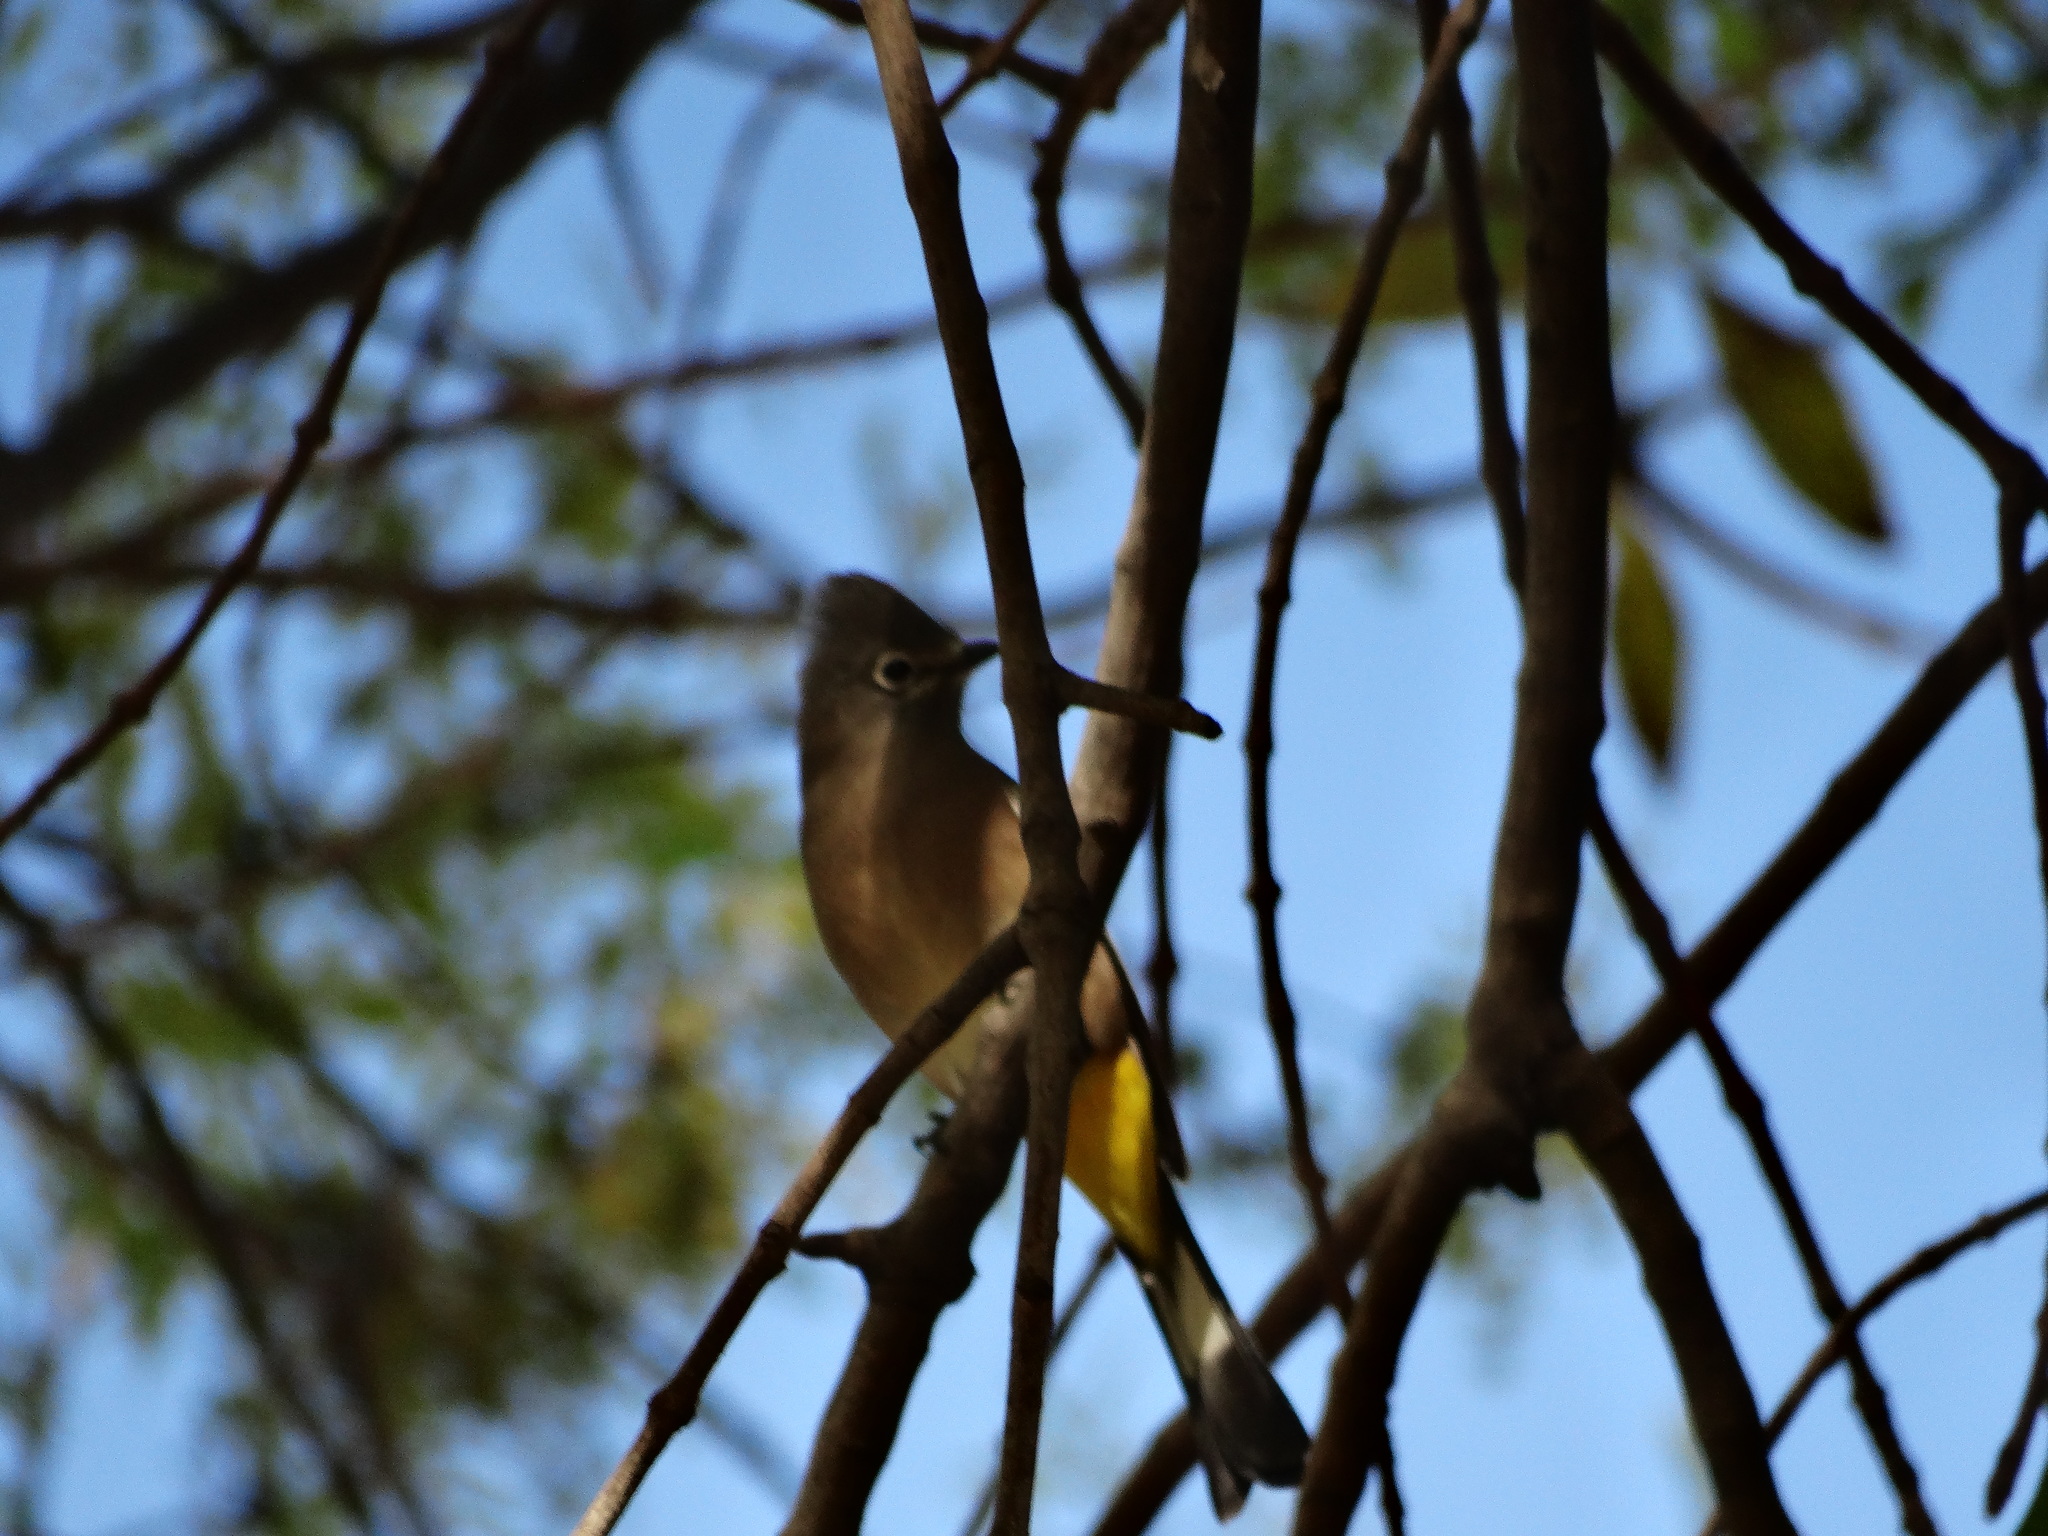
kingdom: Animalia
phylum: Chordata
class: Aves
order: Passeriformes
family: Ptilogonatidae
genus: Ptilogonys
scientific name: Ptilogonys cinereus
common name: Gray silky-flycatcher
